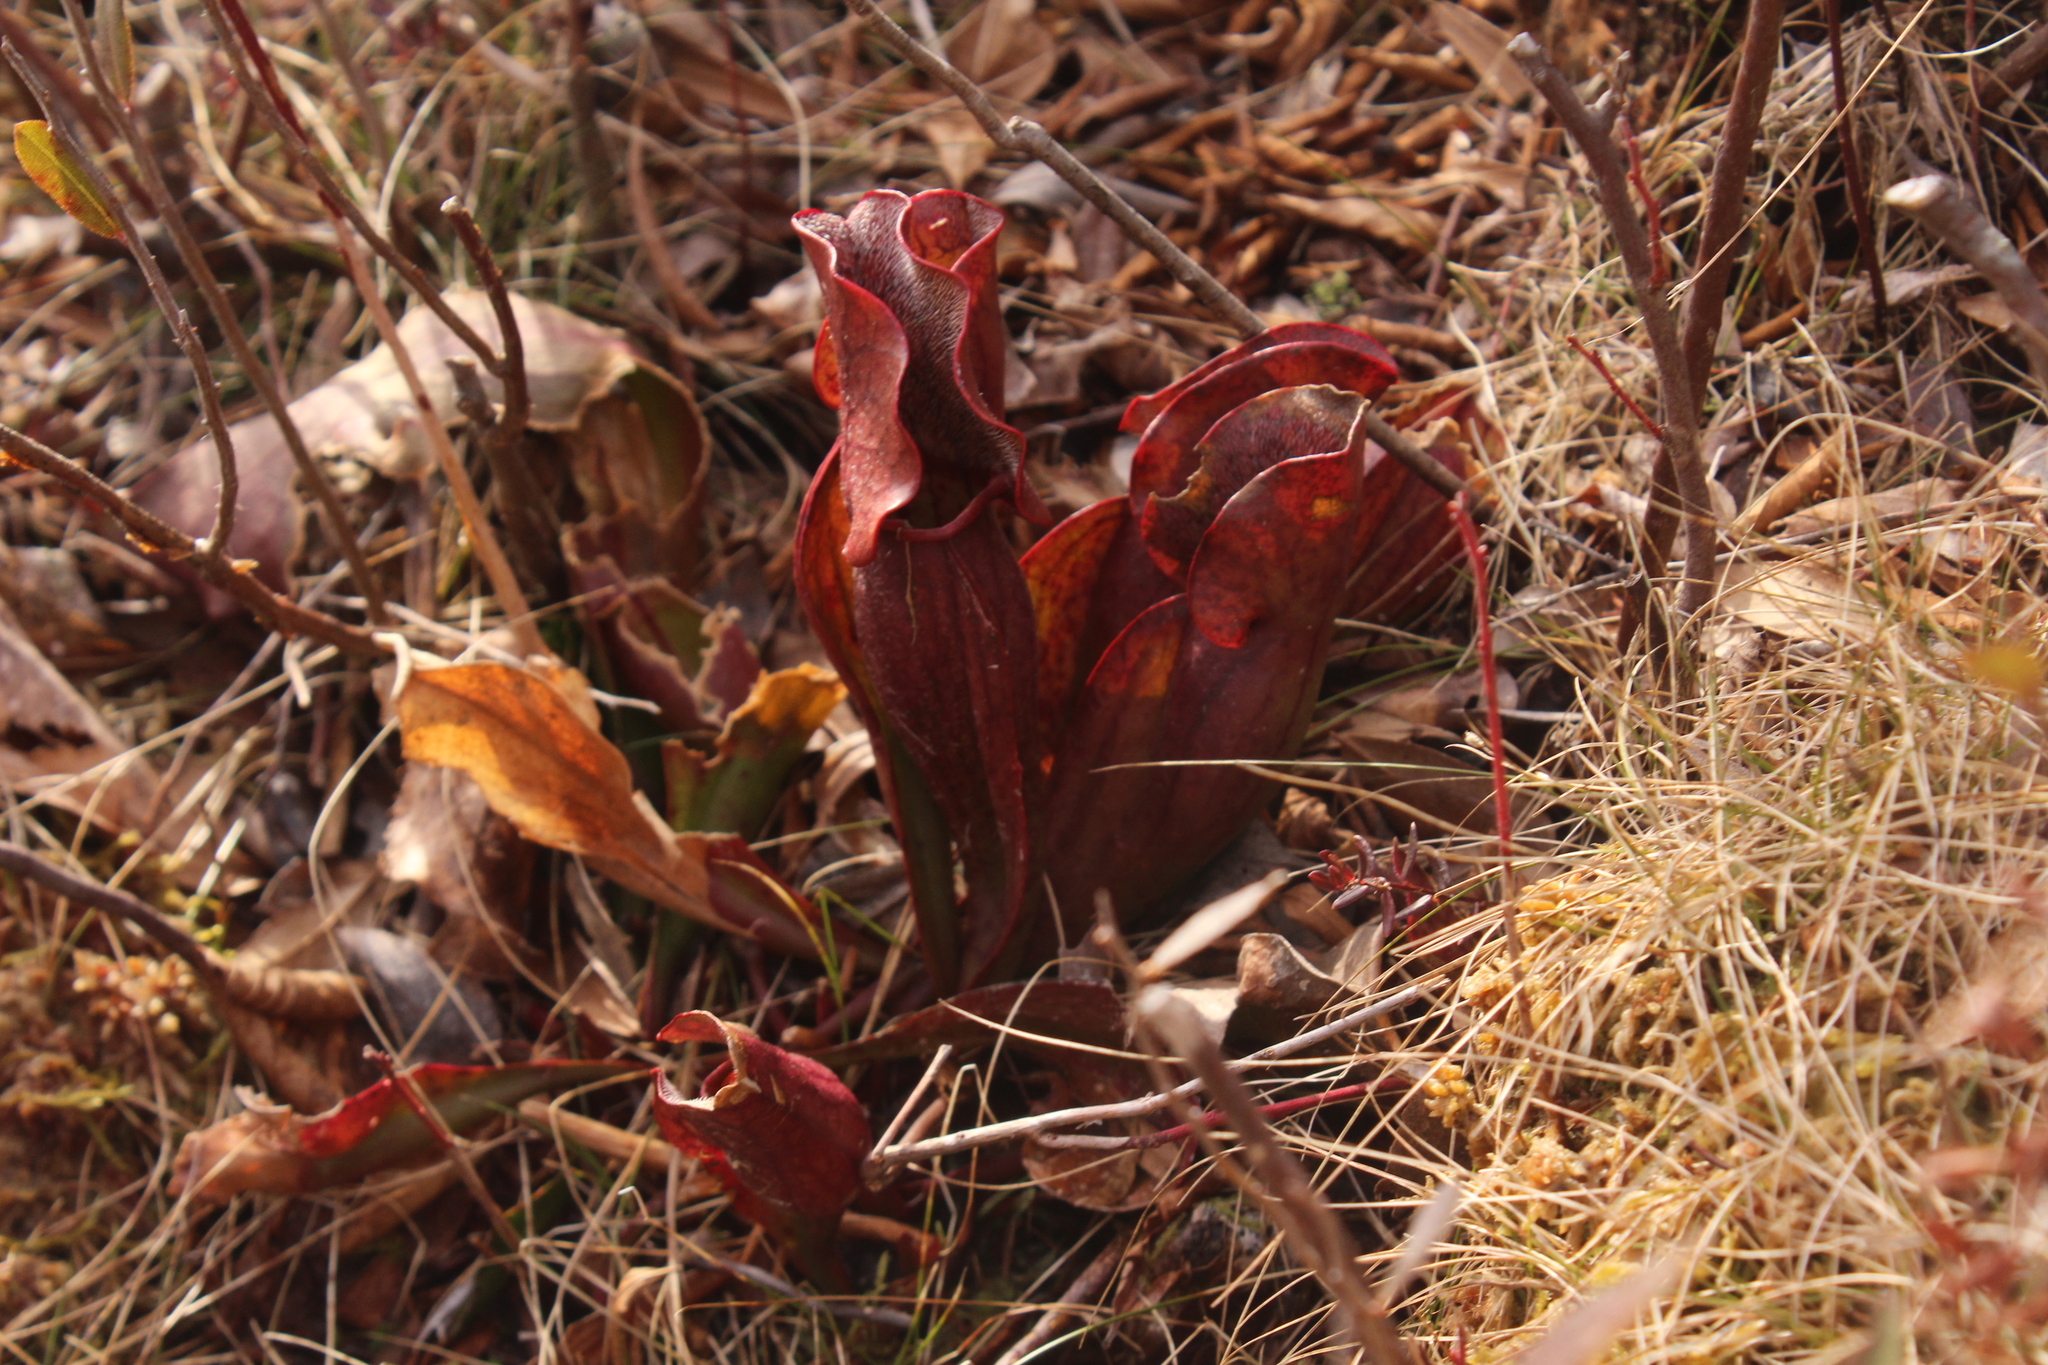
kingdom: Plantae
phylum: Tracheophyta
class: Magnoliopsida
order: Ericales
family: Sarraceniaceae
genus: Sarracenia
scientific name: Sarracenia purpurea
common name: Pitcherplant
